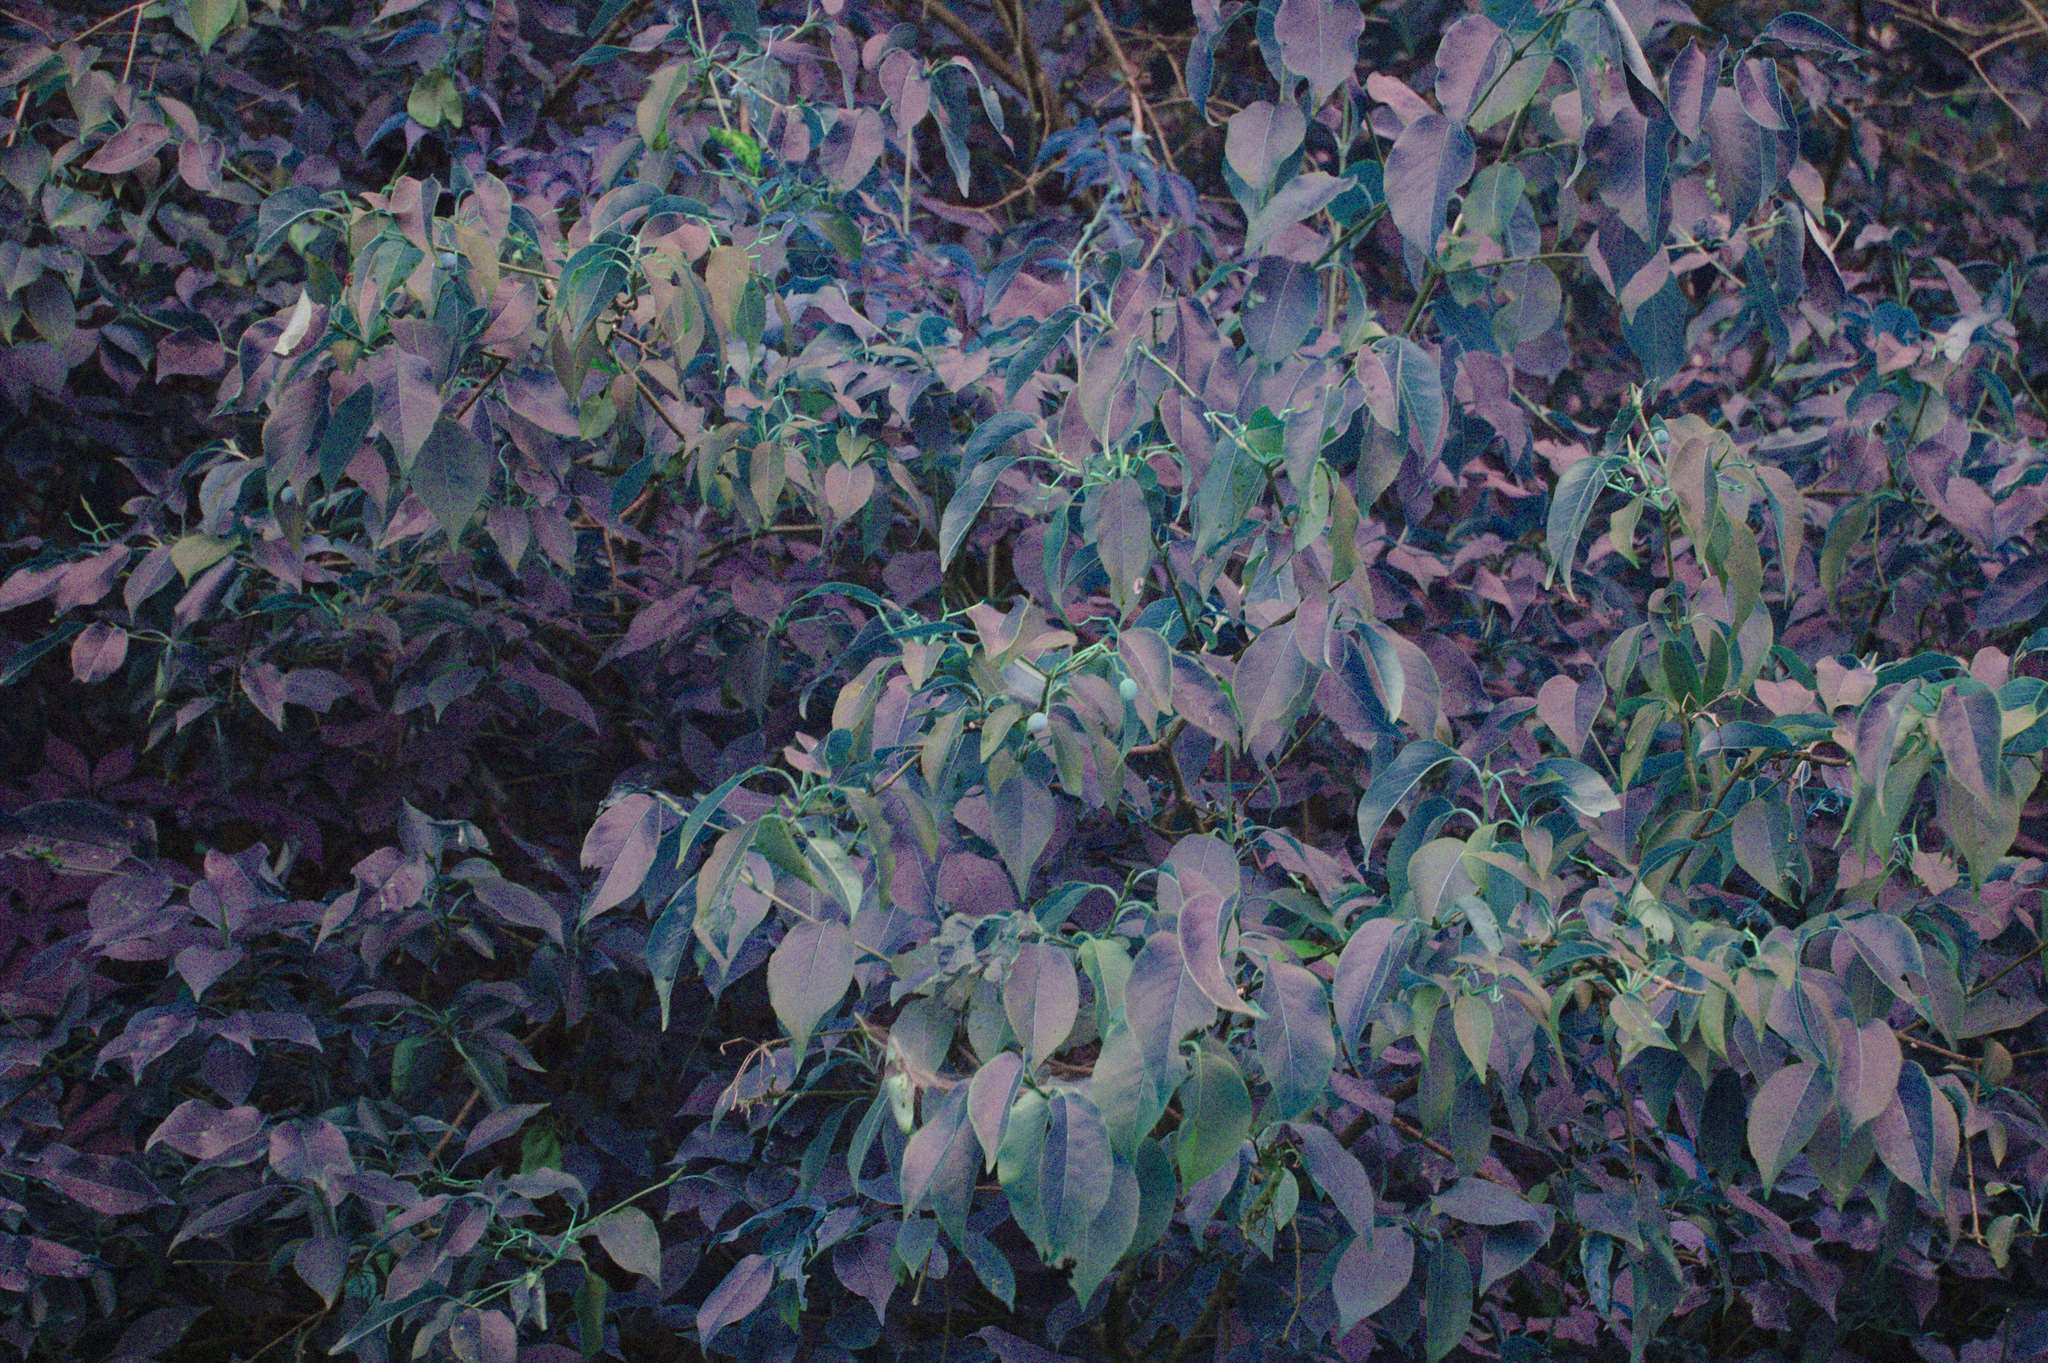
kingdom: Plantae
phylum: Tracheophyta
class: Magnoliopsida
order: Dipsacales
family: Viburnaceae
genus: Viburnum
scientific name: Viburnum lentago
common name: Black haw
